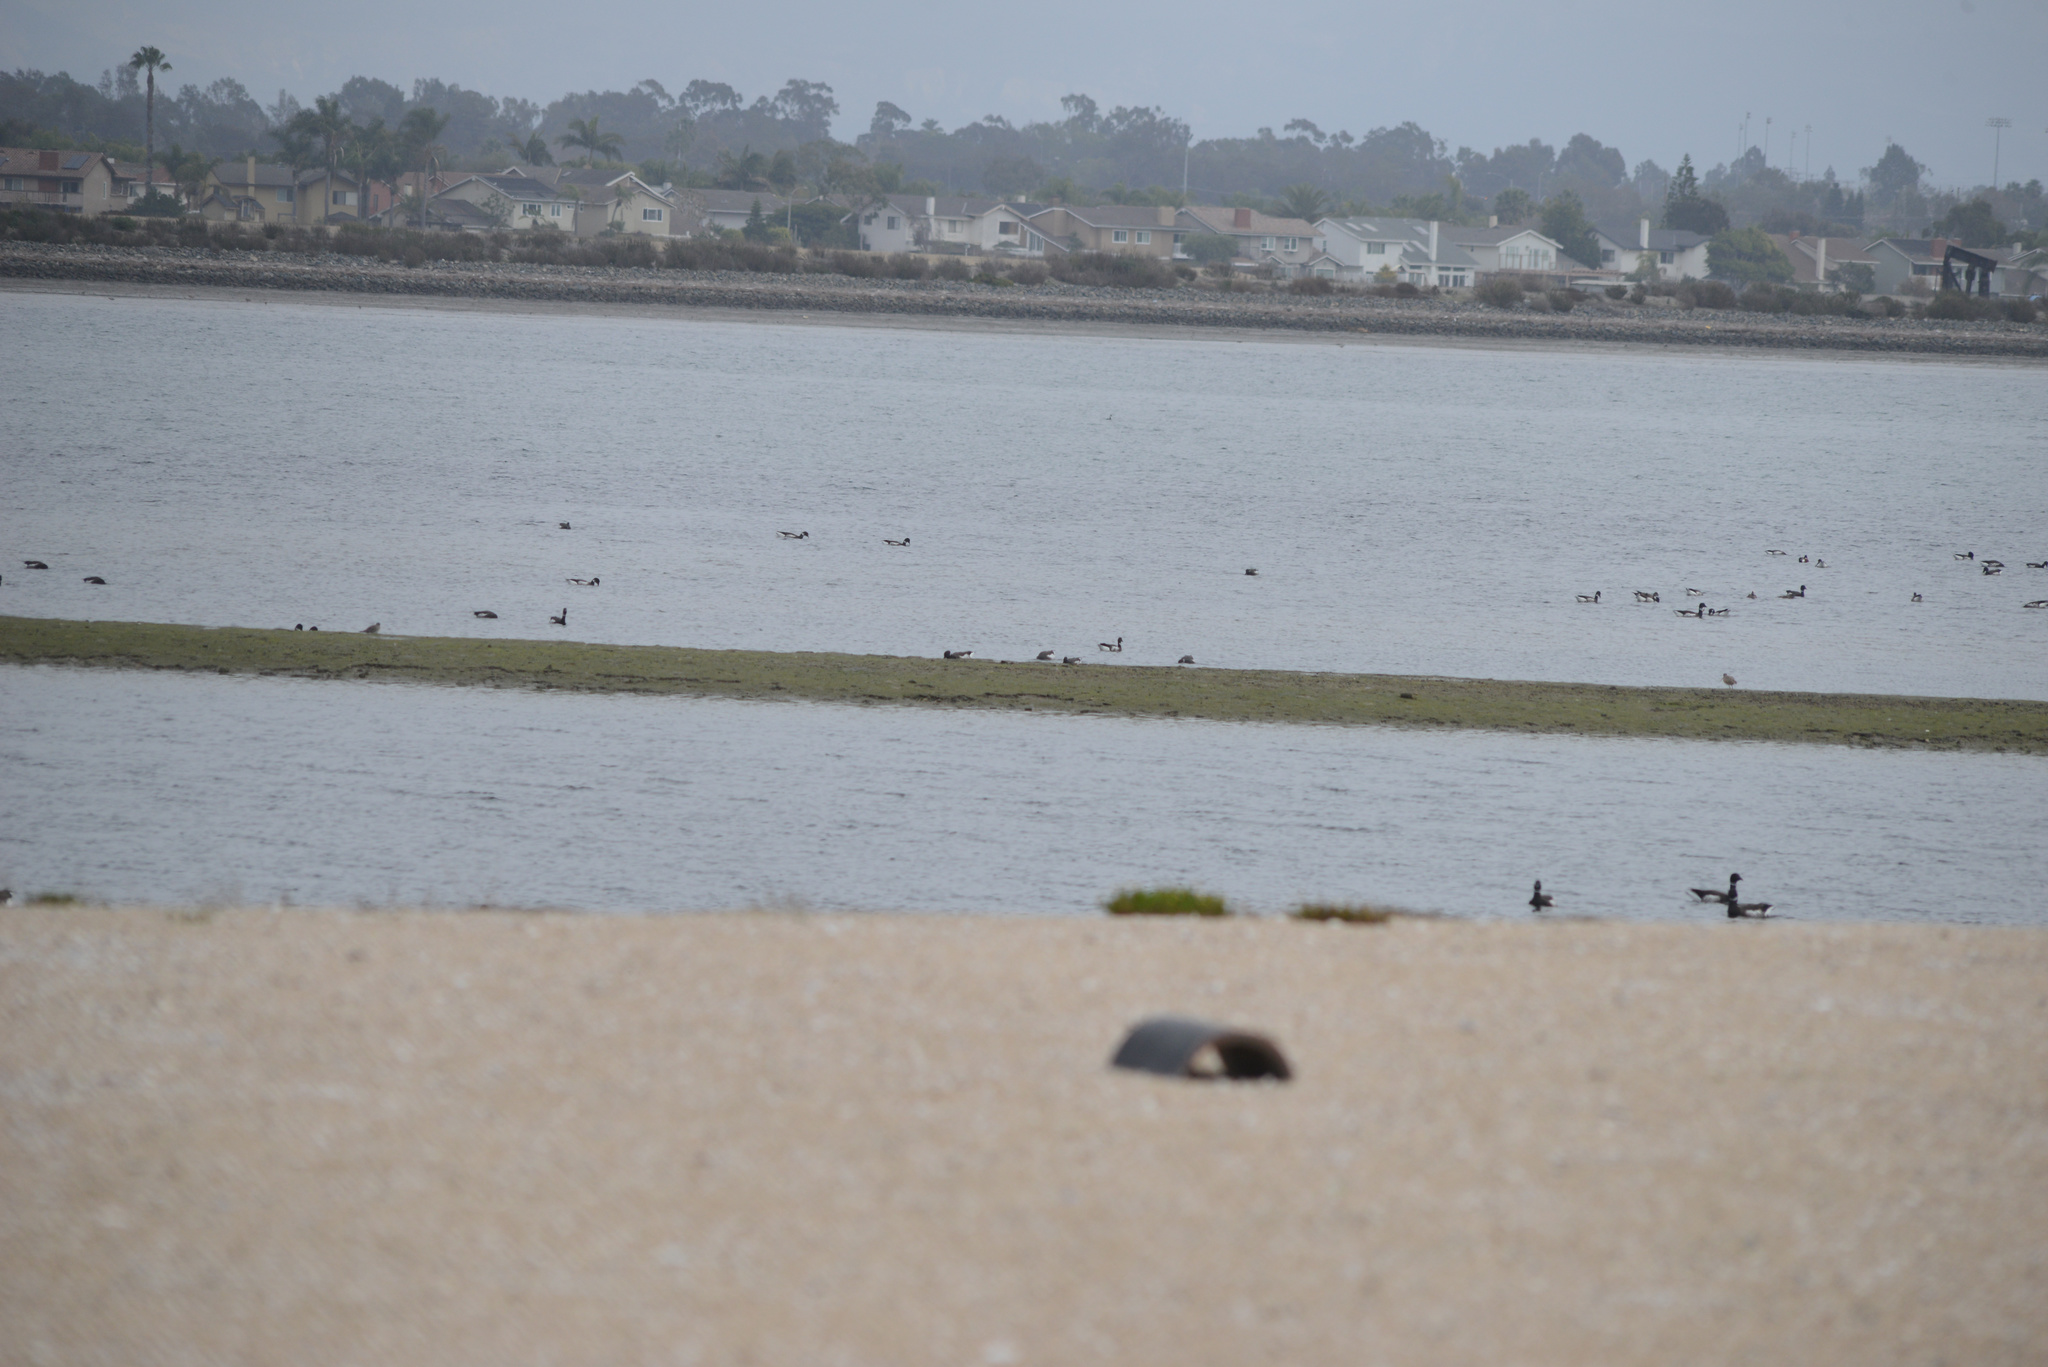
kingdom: Animalia
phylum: Chordata
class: Aves
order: Anseriformes
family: Anatidae
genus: Branta
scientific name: Branta bernicla
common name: Brant goose
